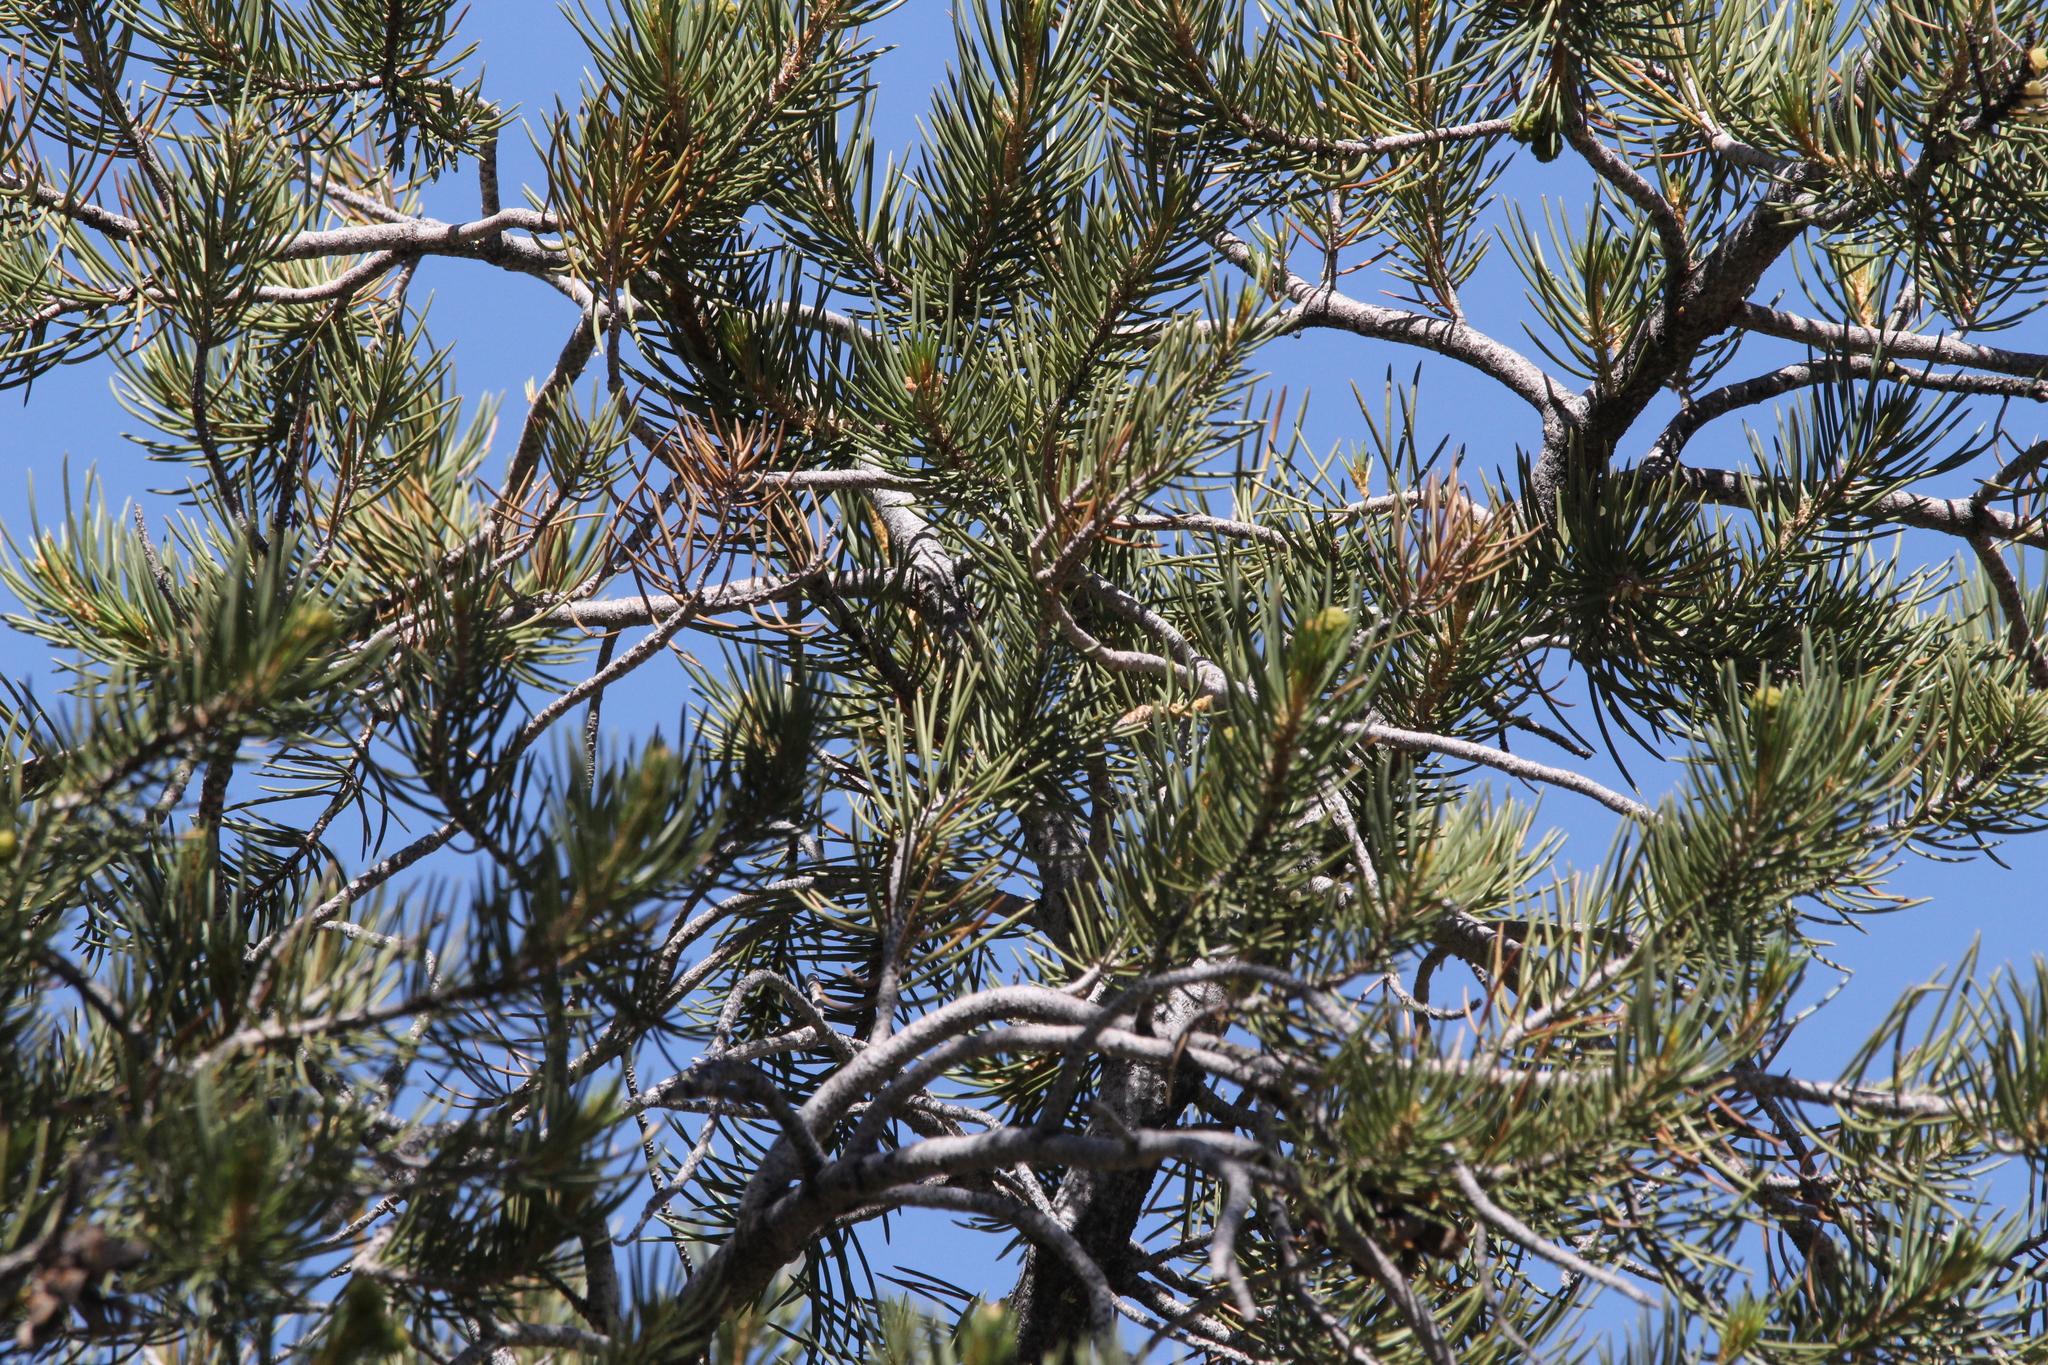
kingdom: Plantae
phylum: Tracheophyta
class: Pinopsida
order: Pinales
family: Pinaceae
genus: Pinus
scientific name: Pinus monophylla
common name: One-leaved nut pine
